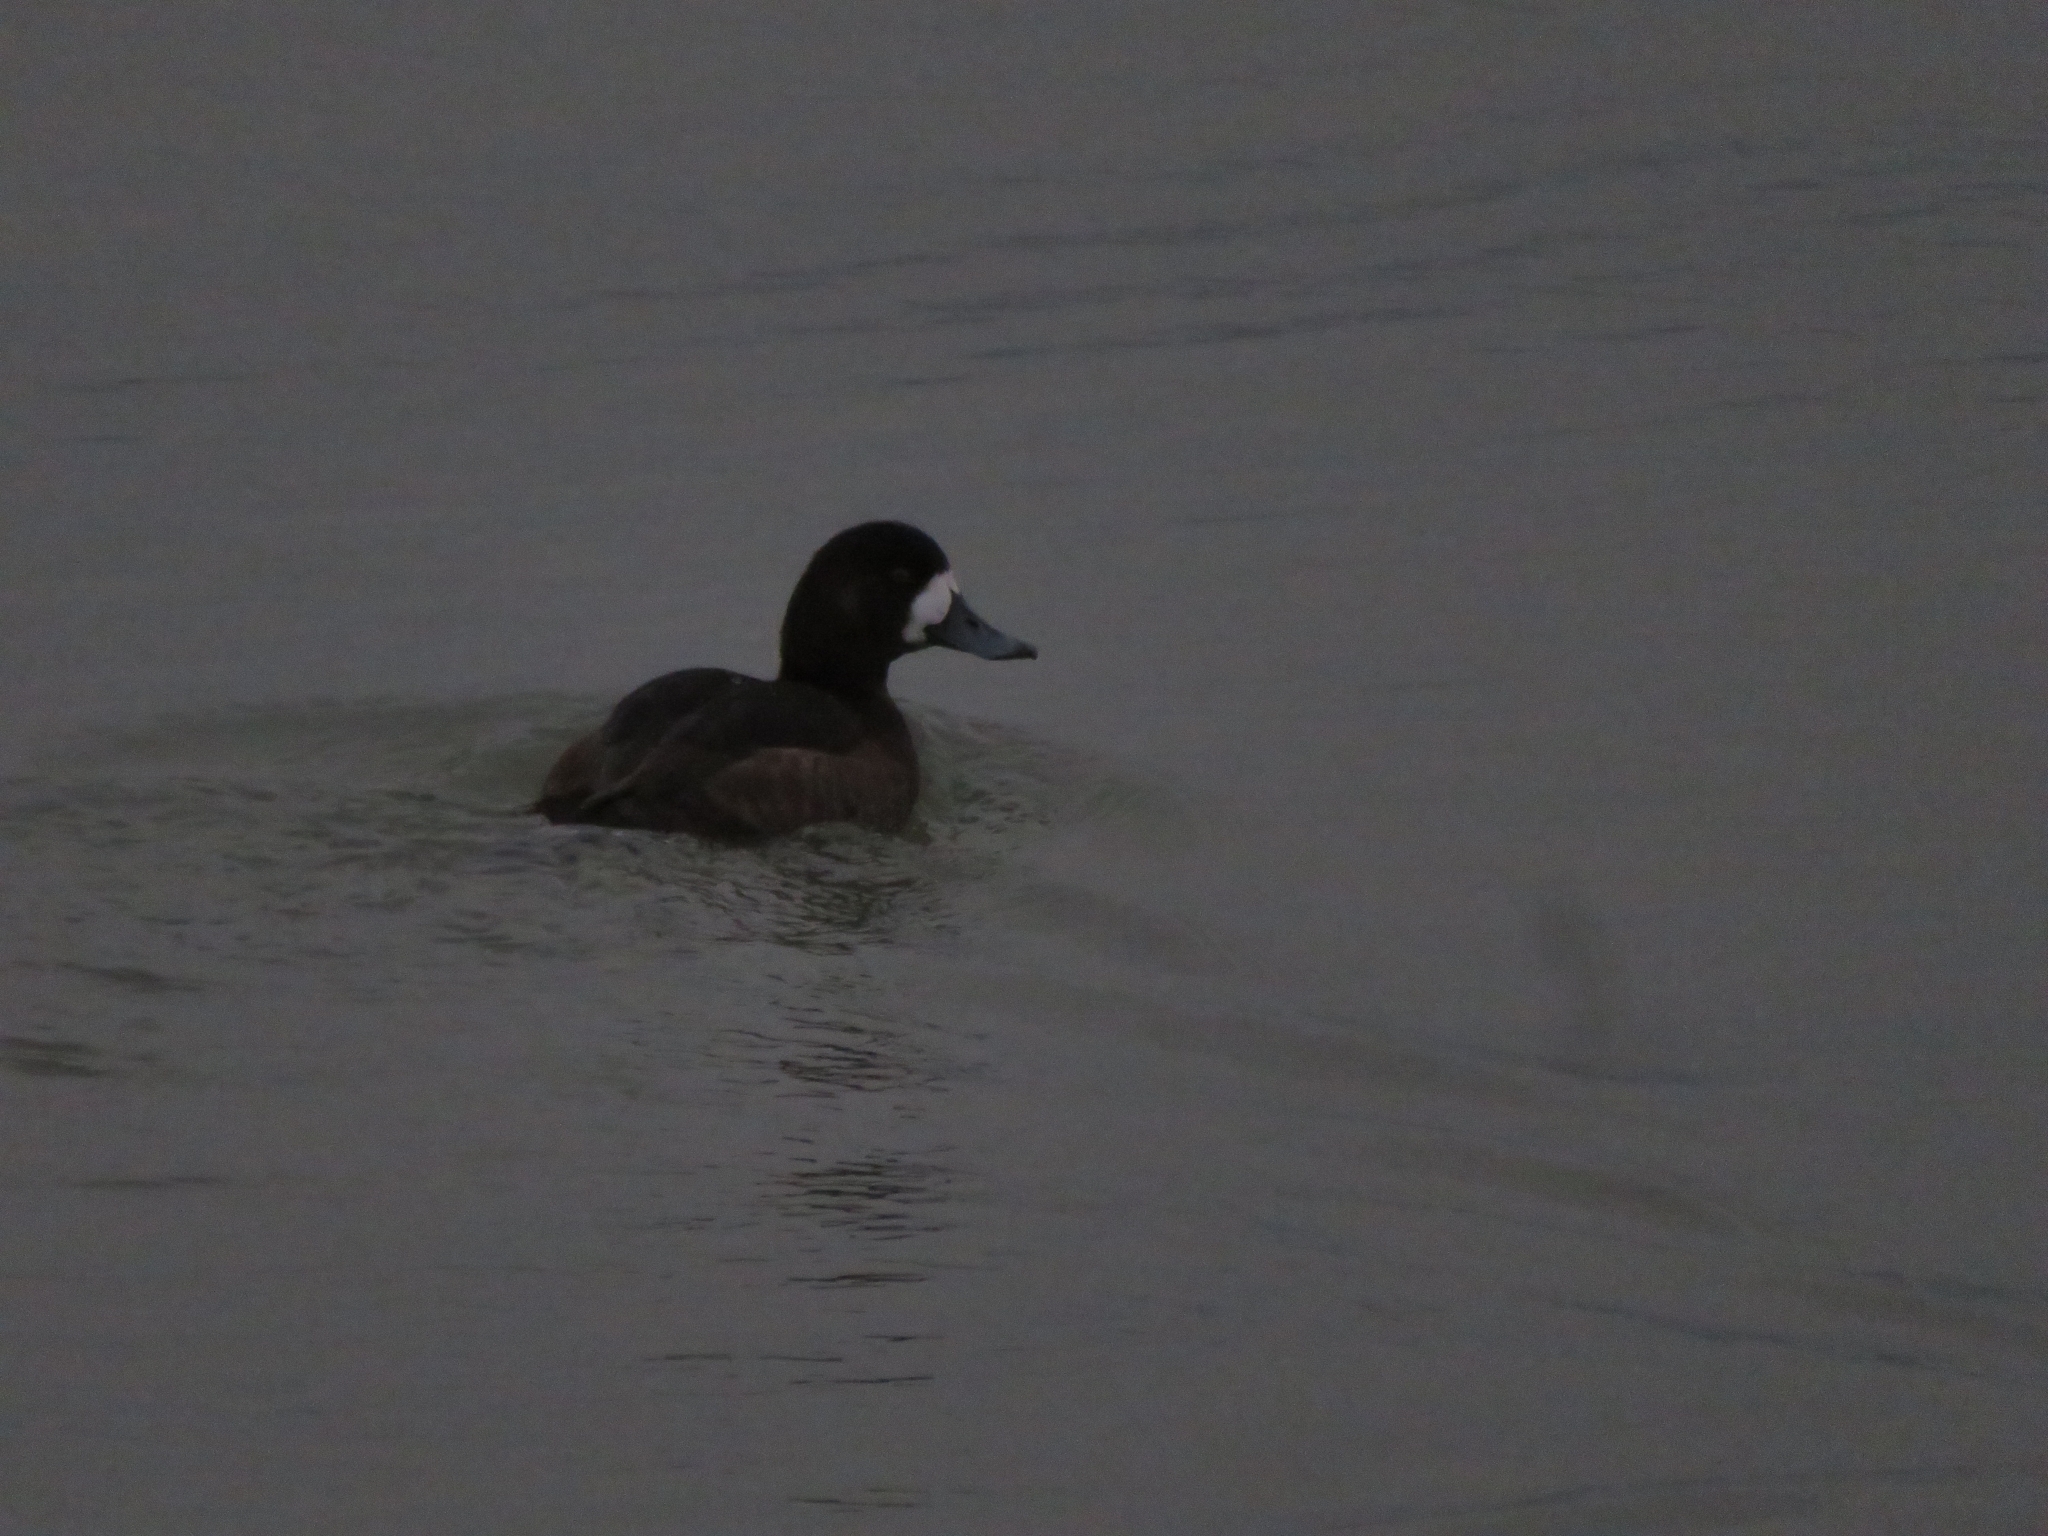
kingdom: Animalia
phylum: Chordata
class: Aves
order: Anseriformes
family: Anatidae
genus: Aythya
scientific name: Aythya marila
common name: Greater scaup
